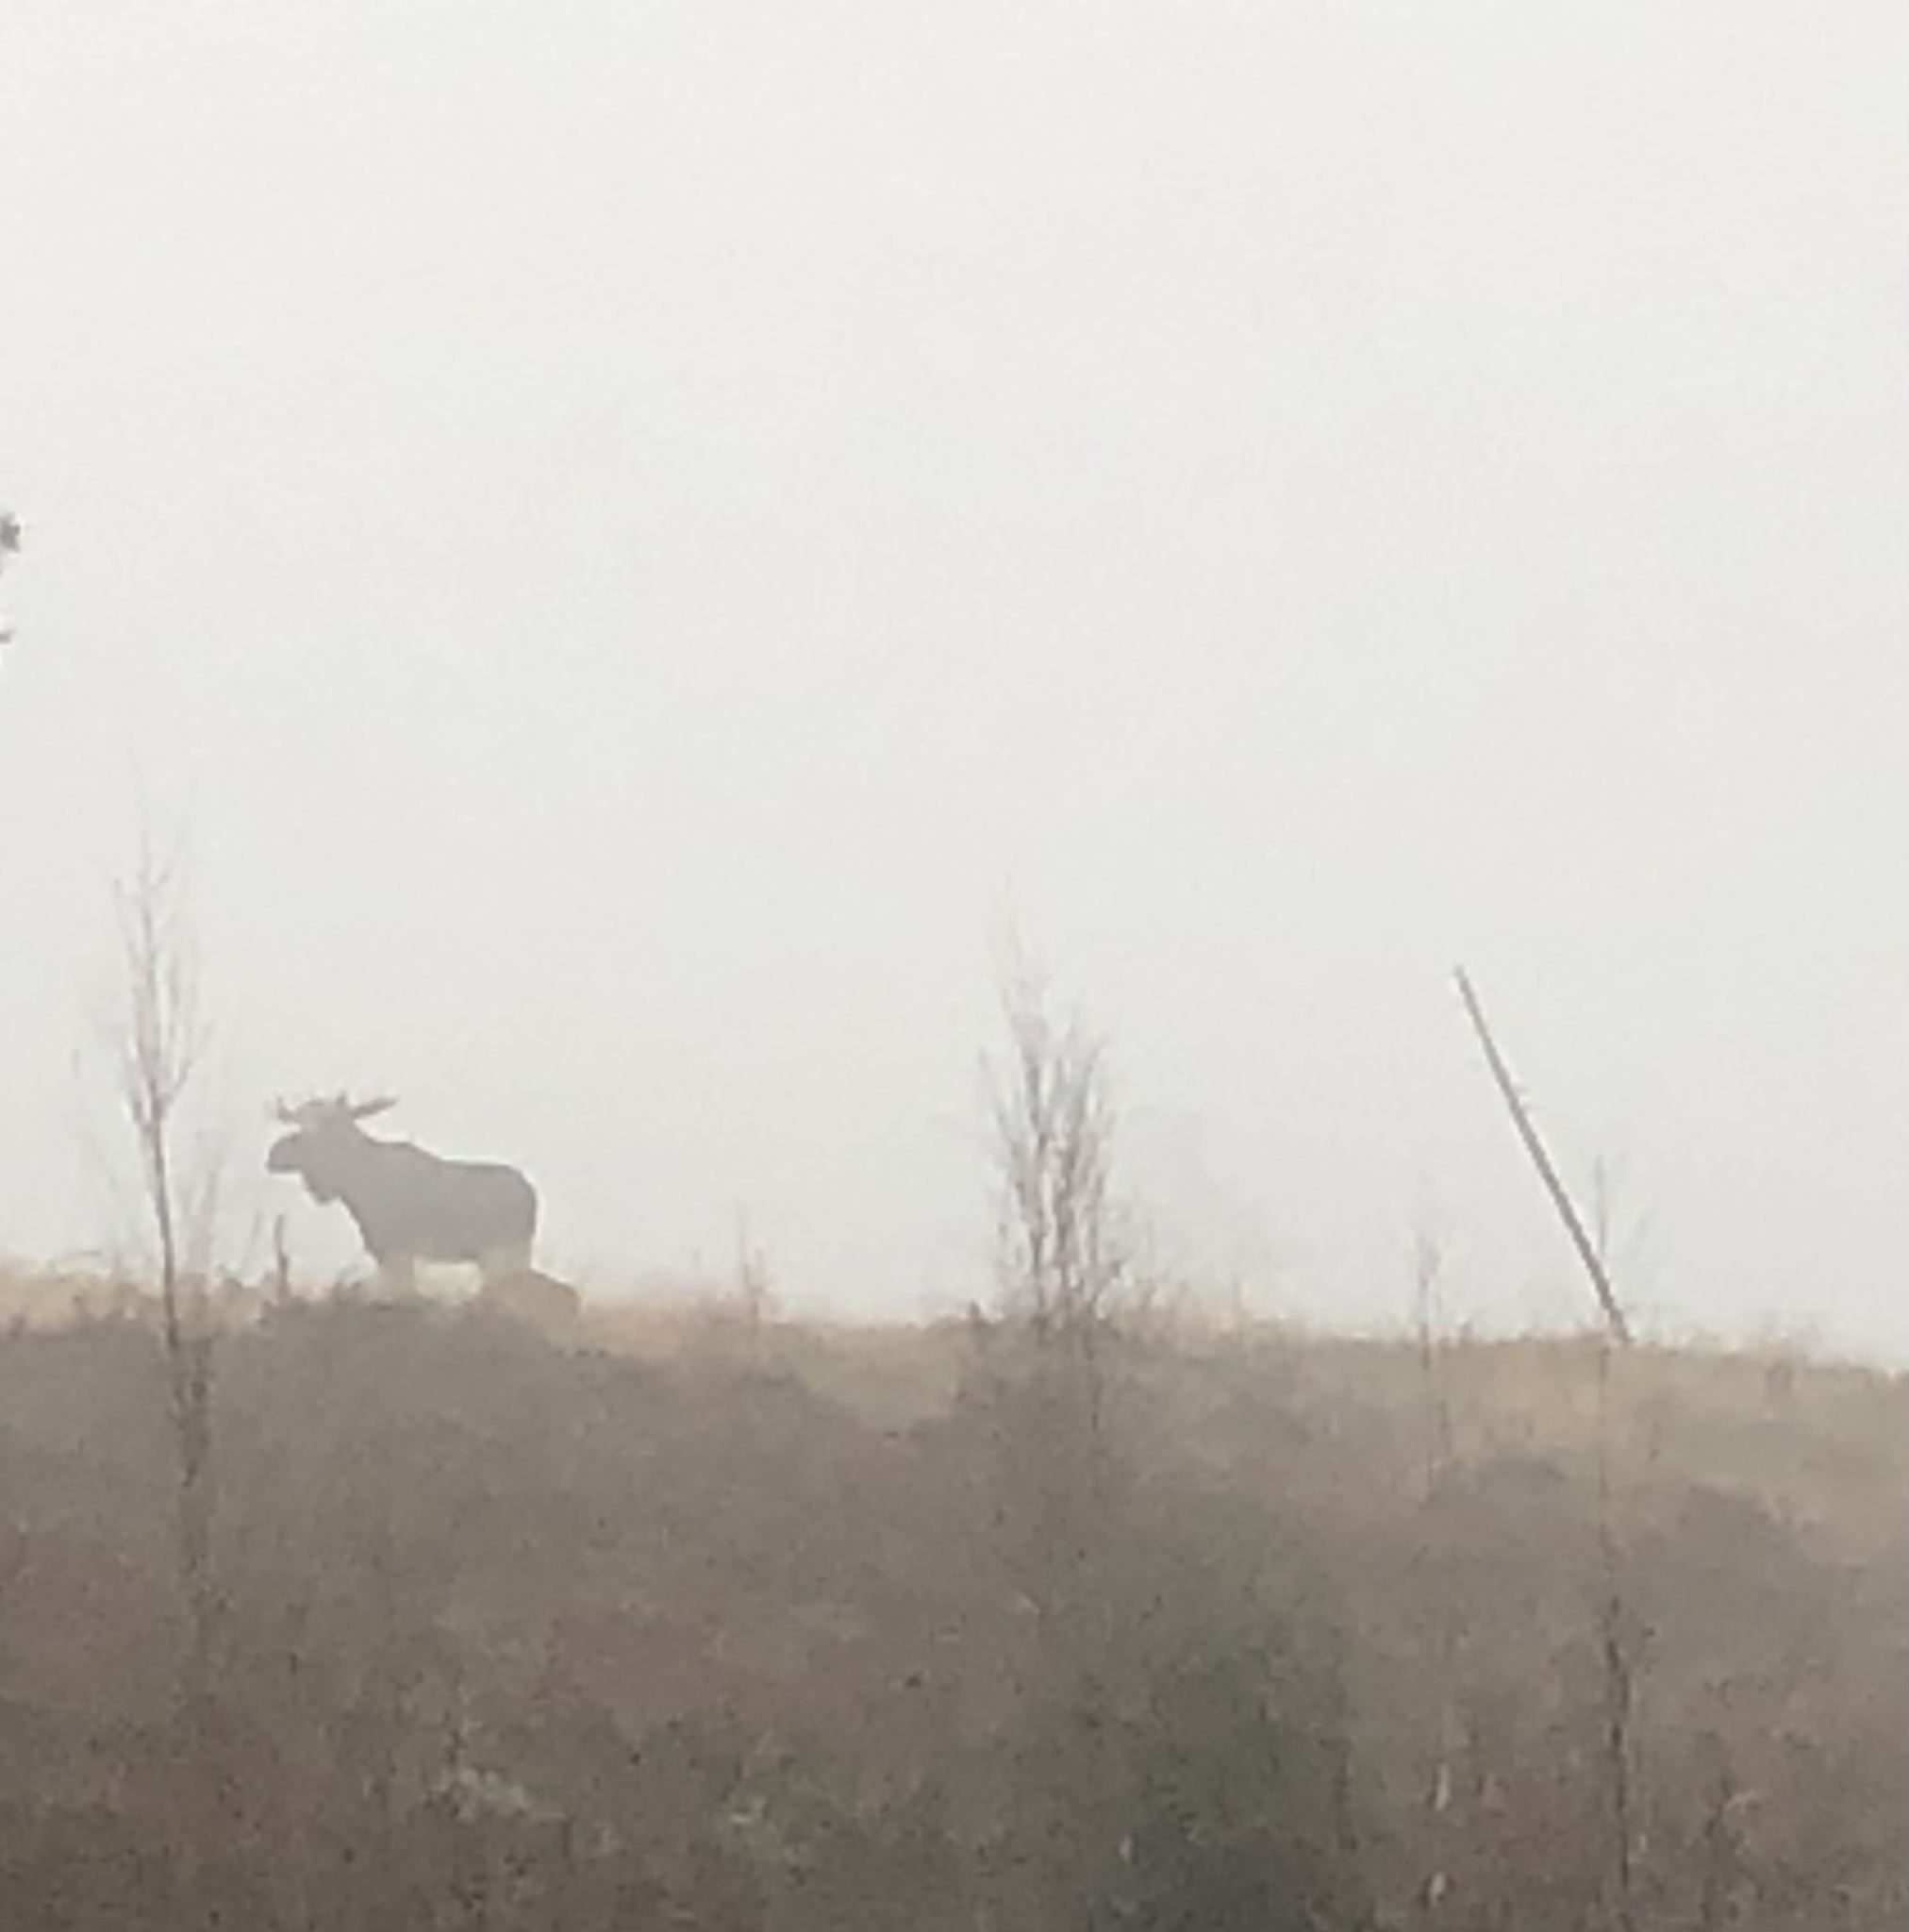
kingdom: Animalia
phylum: Chordata
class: Mammalia
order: Artiodactyla
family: Cervidae
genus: Alces
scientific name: Alces alces
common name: Moose
